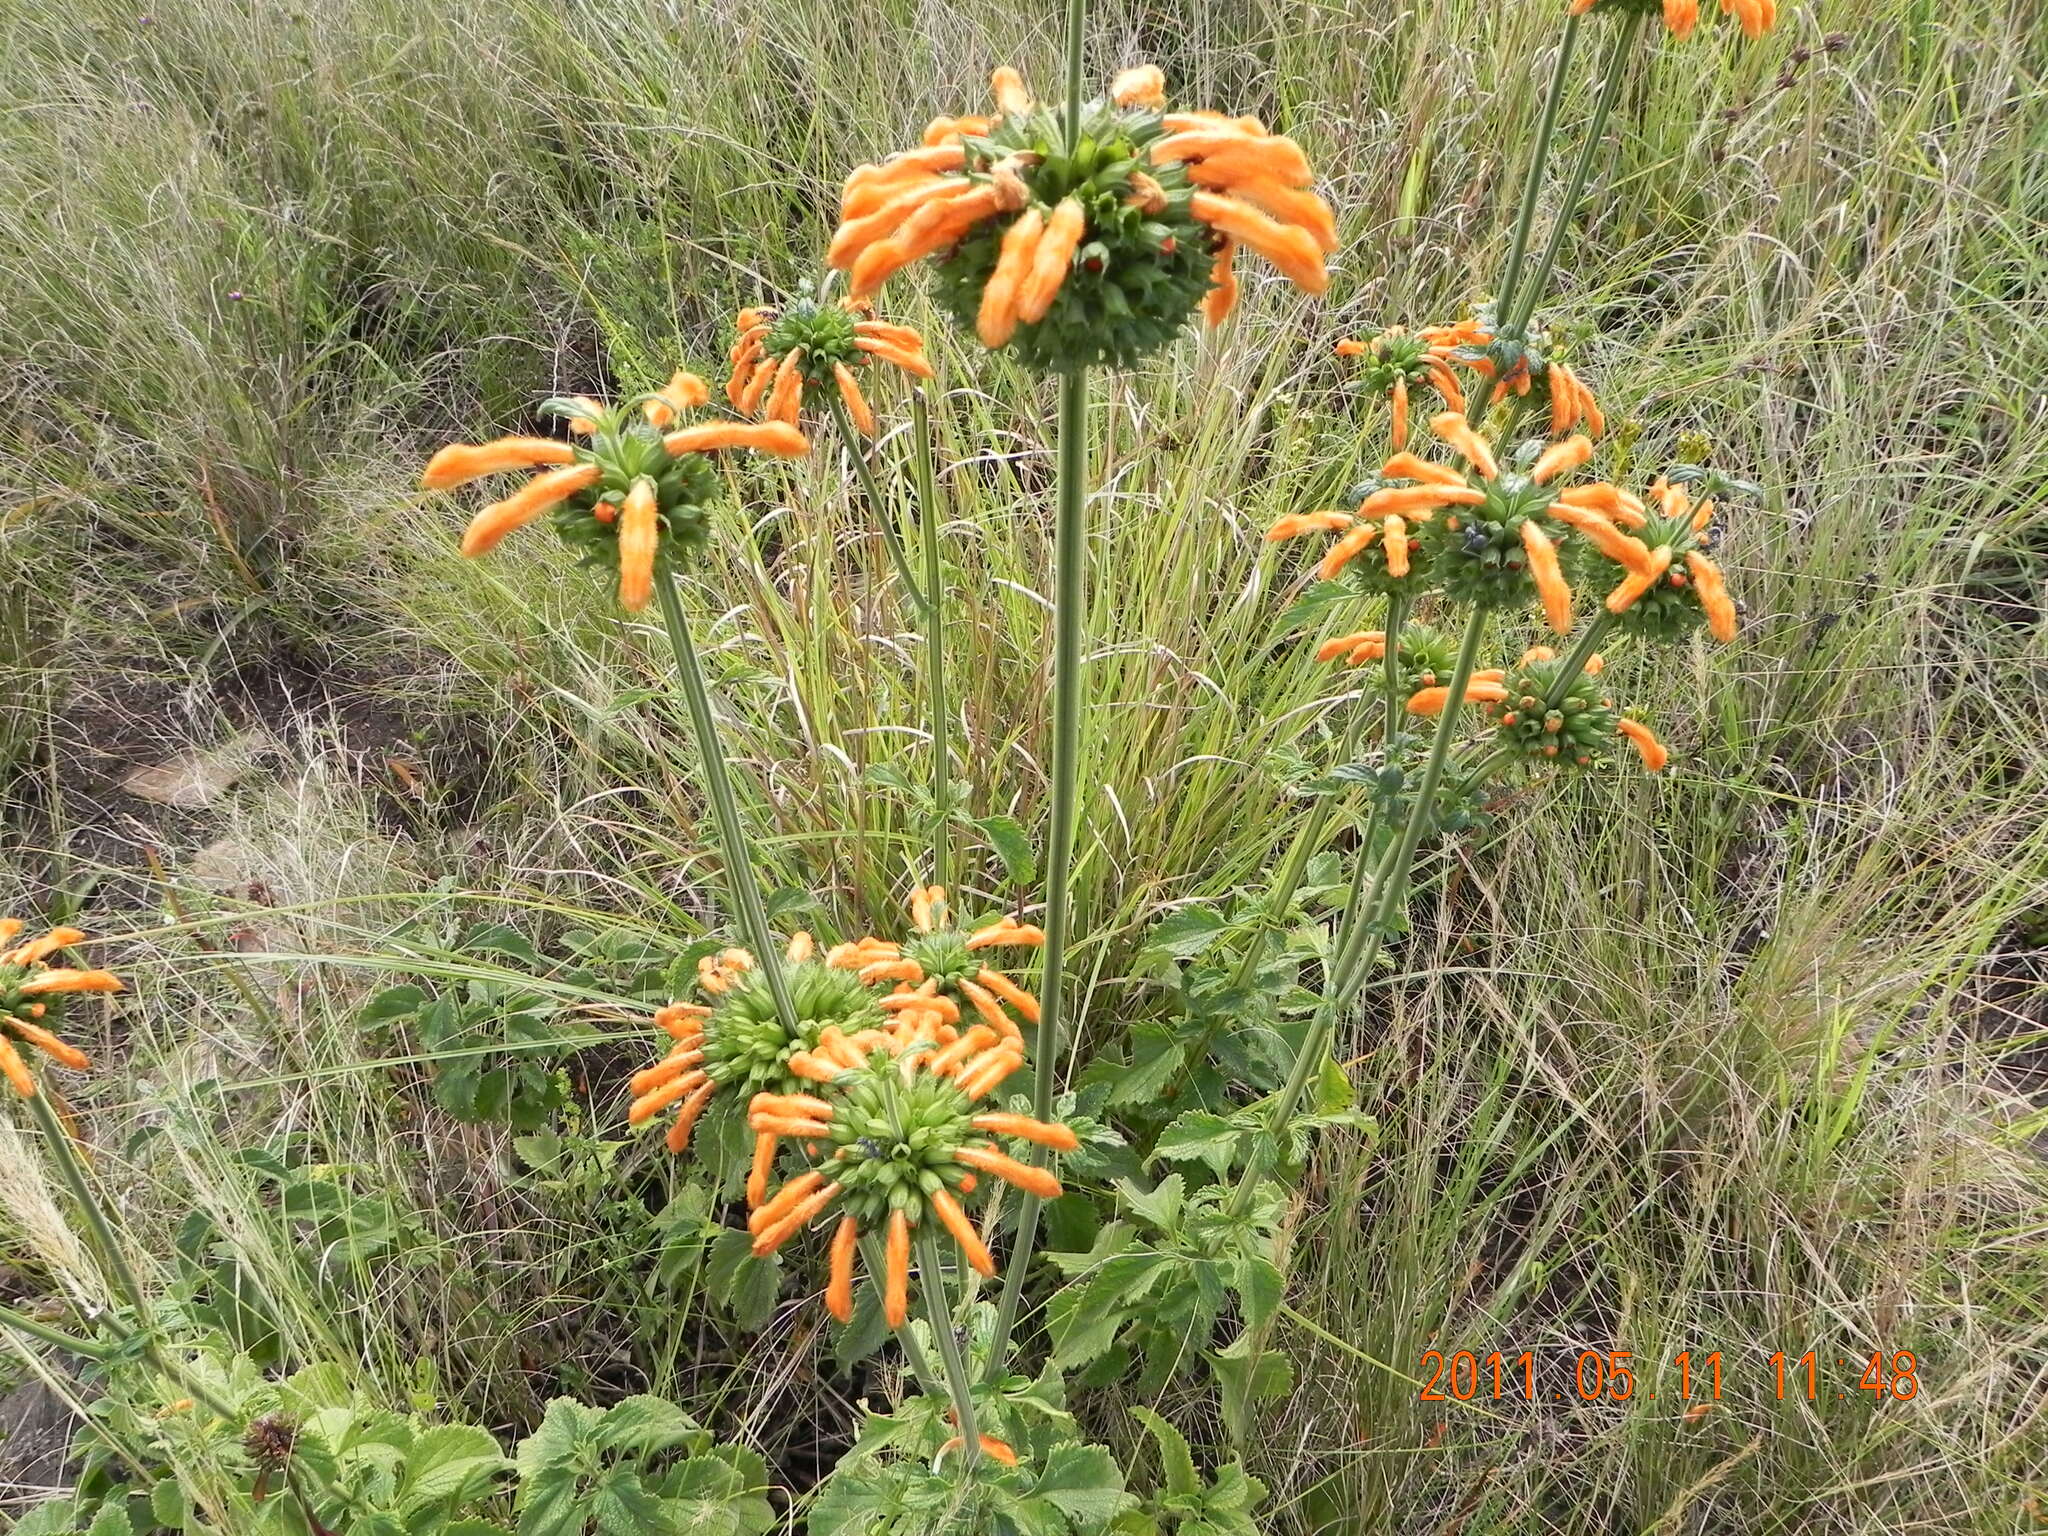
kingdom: Plantae
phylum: Tracheophyta
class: Magnoliopsida
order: Lamiales
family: Lamiaceae
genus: Leonotis
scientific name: Leonotis ocymifolia
